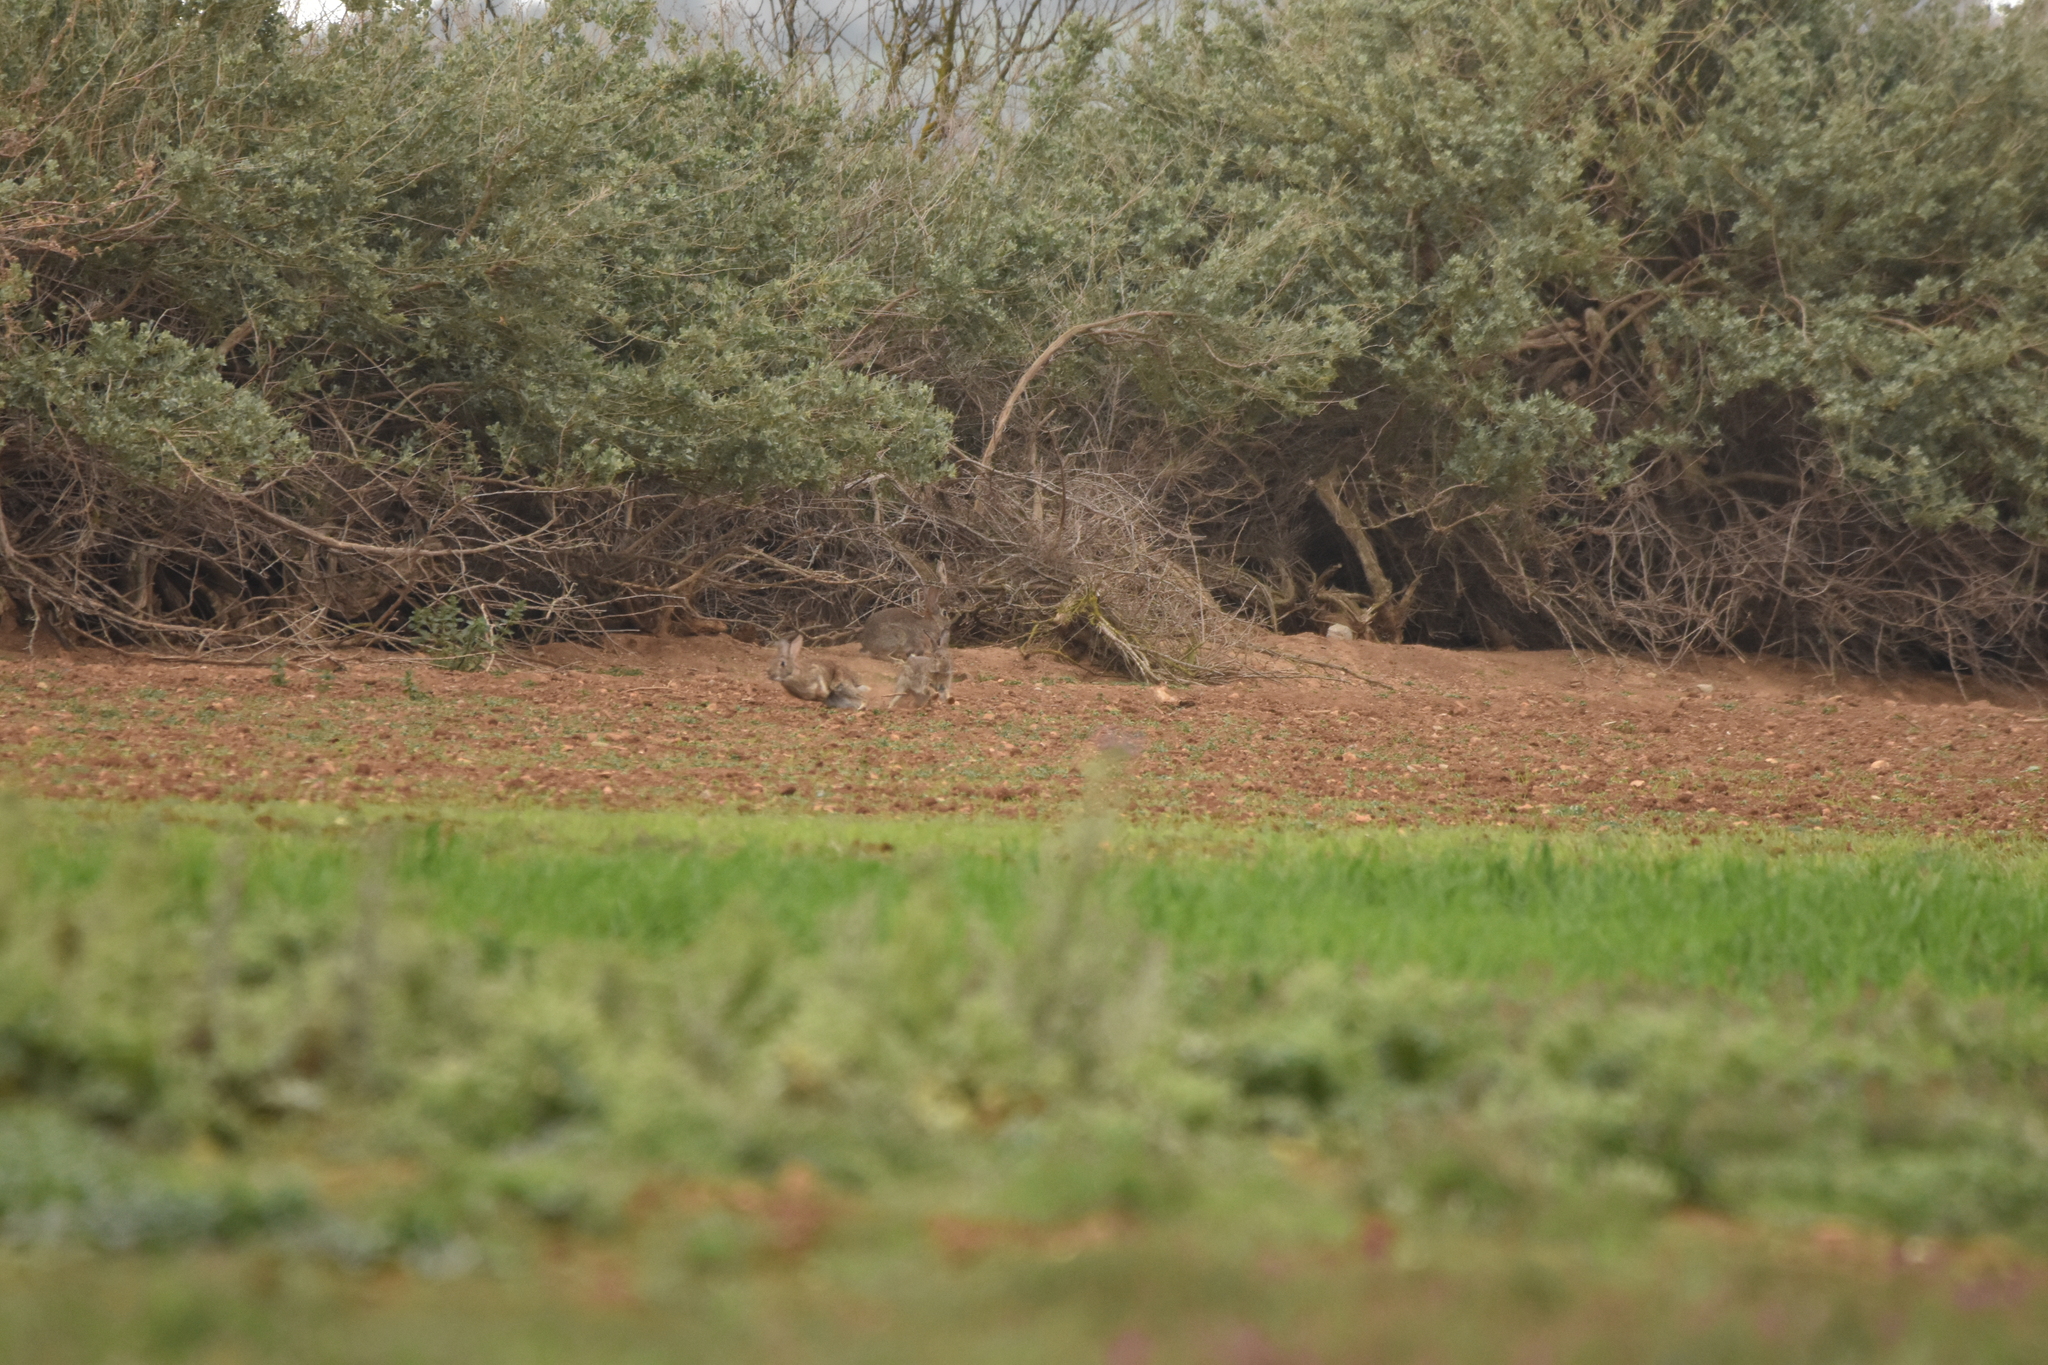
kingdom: Animalia
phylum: Chordata
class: Mammalia
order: Lagomorpha
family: Leporidae
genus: Oryctolagus
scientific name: Oryctolagus cuniculus
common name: European rabbit
